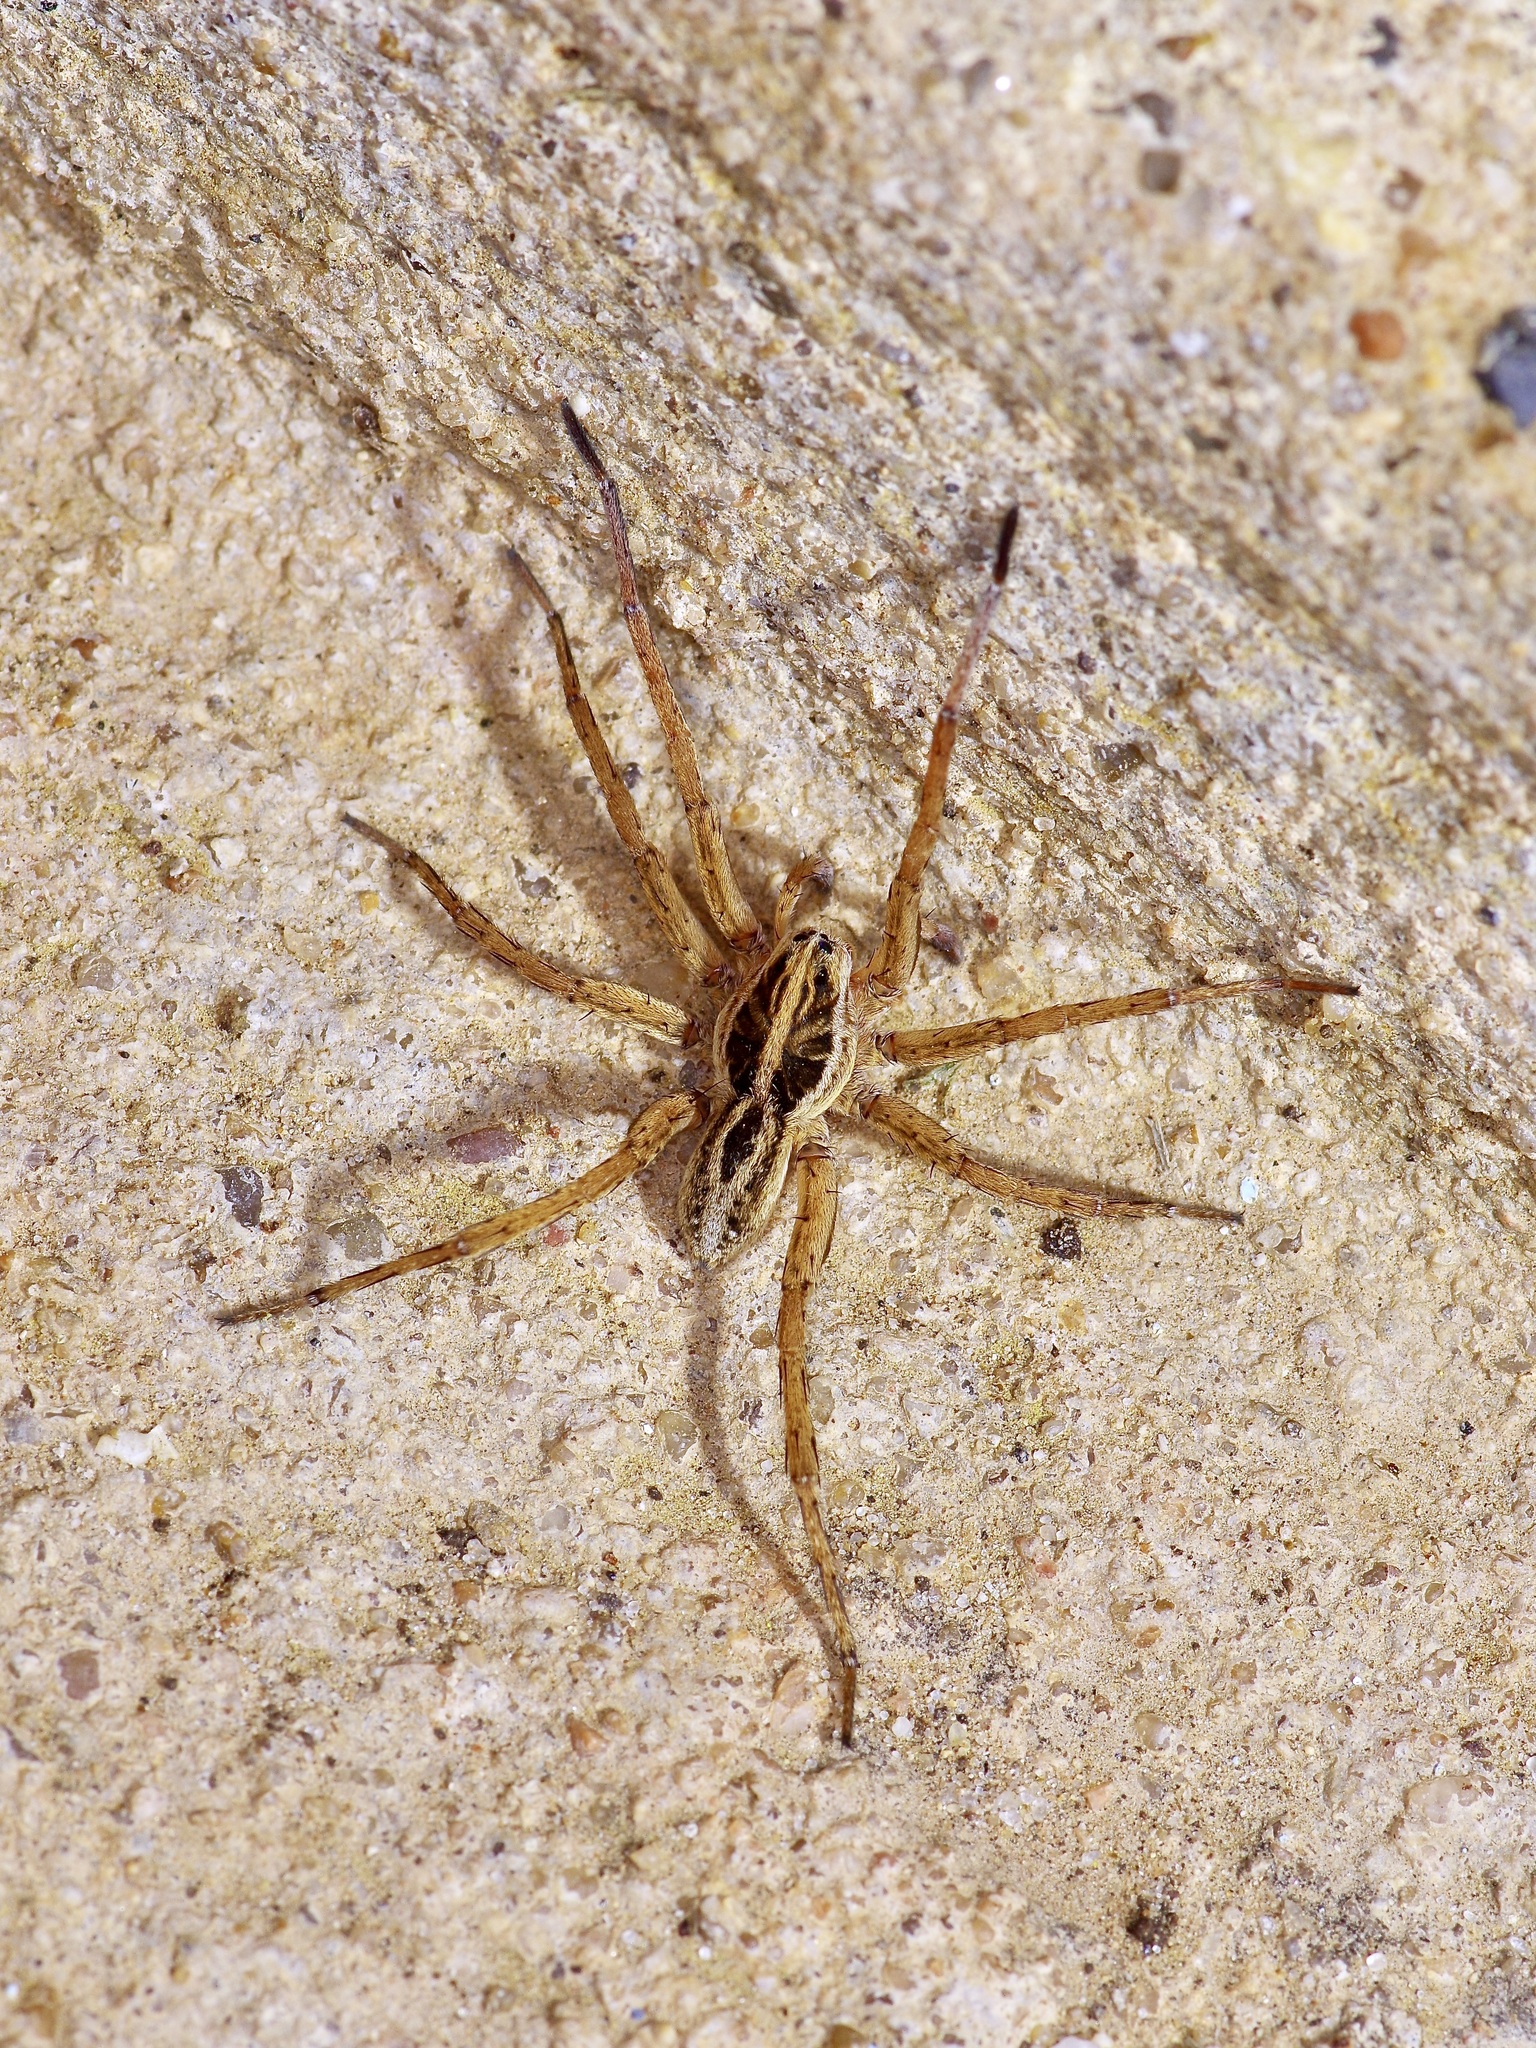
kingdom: Animalia
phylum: Arthropoda
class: Arachnida
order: Araneae
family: Lycosidae
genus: Tigrosa
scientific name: Tigrosa annexa
